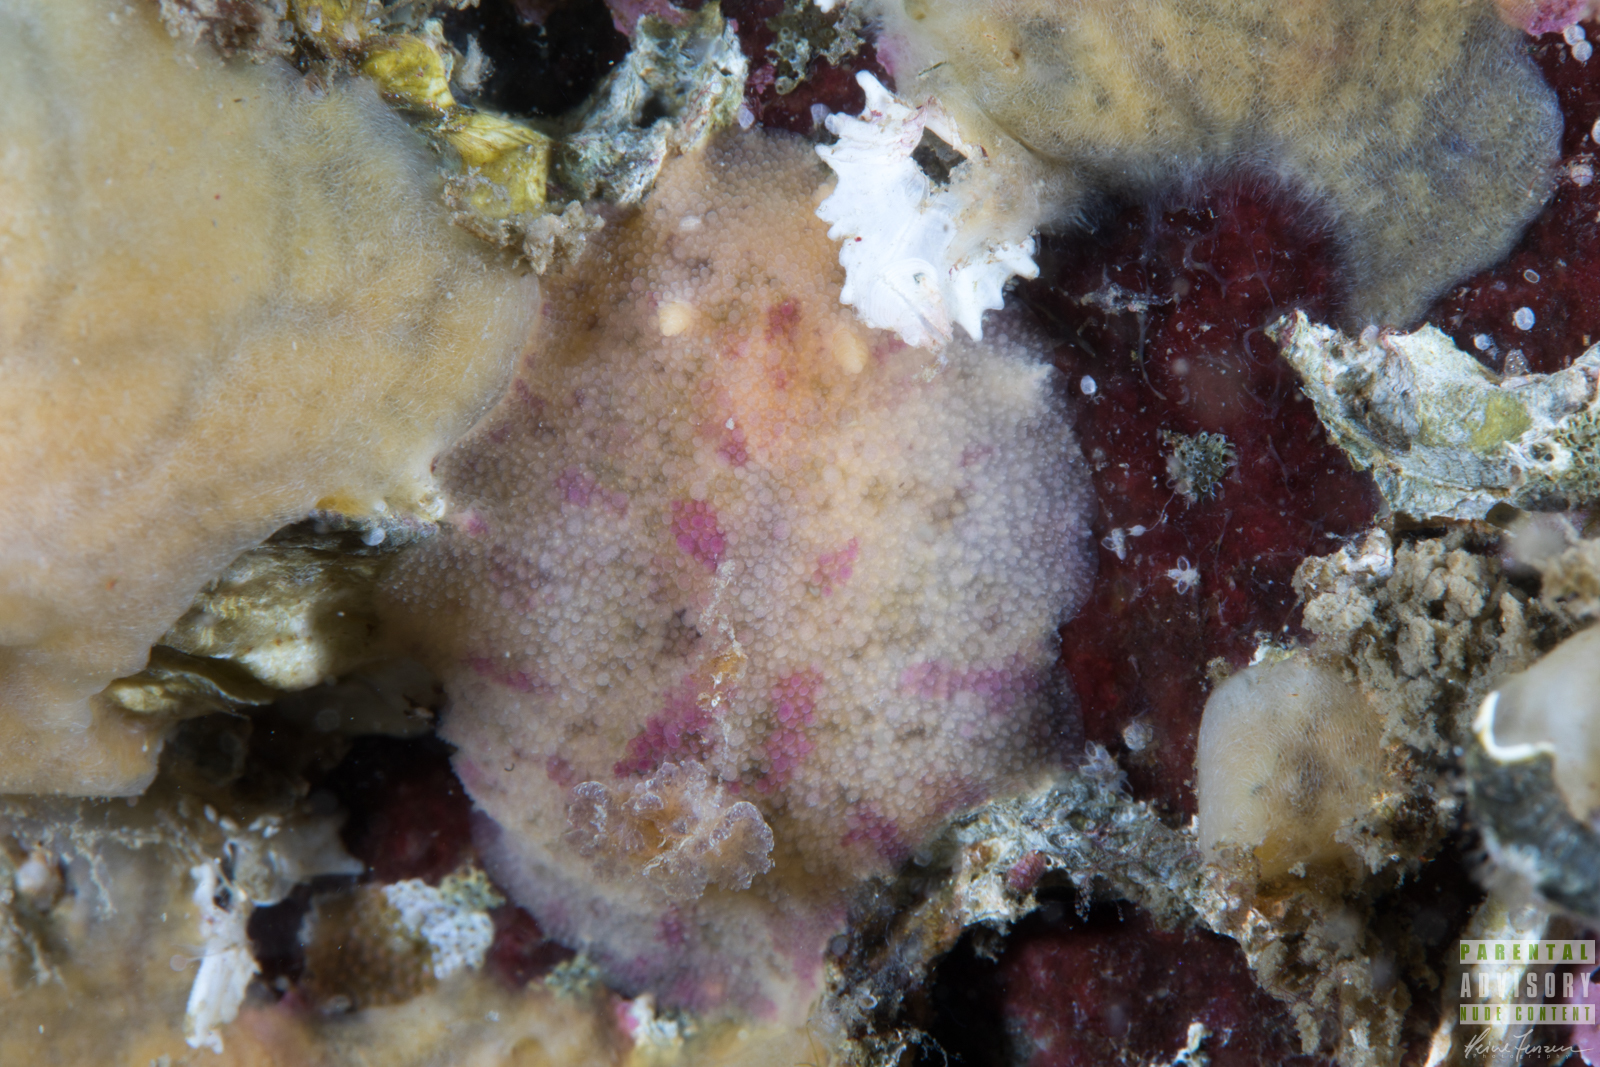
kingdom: Animalia
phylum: Mollusca
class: Gastropoda
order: Nudibranchia
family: Dorididae
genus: Doris
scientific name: Doris pseudoargus
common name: Sea lemon
